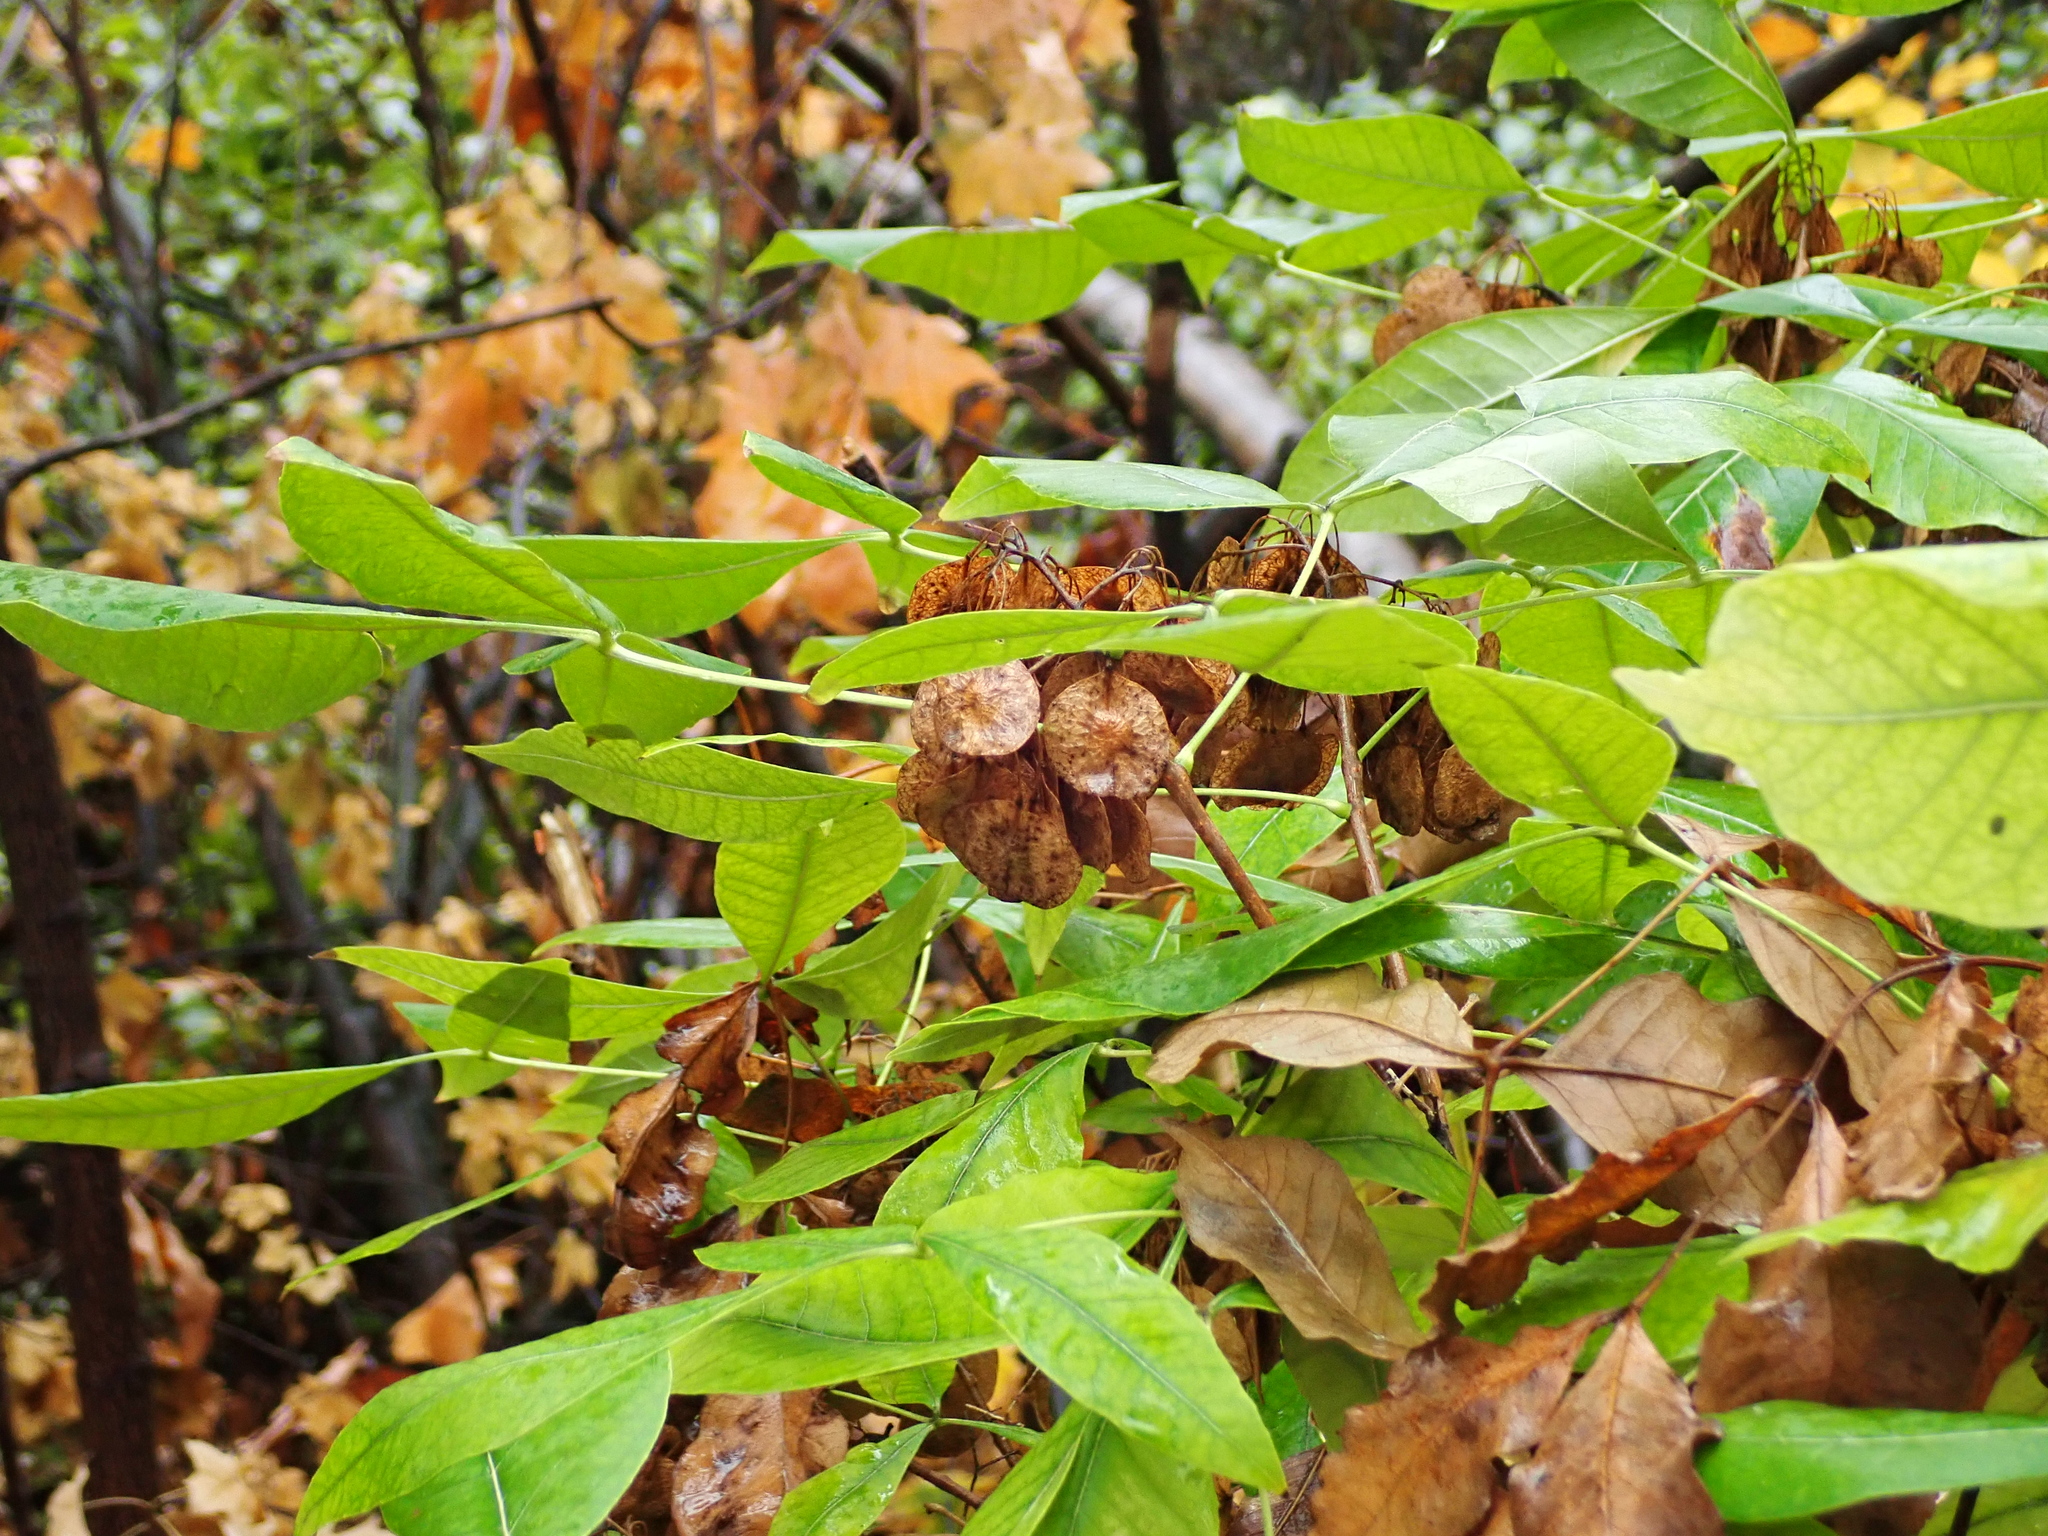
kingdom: Plantae
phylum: Tracheophyta
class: Magnoliopsida
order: Sapindales
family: Rutaceae
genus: Ptelea
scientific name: Ptelea trifoliata
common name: Common hop-tree
